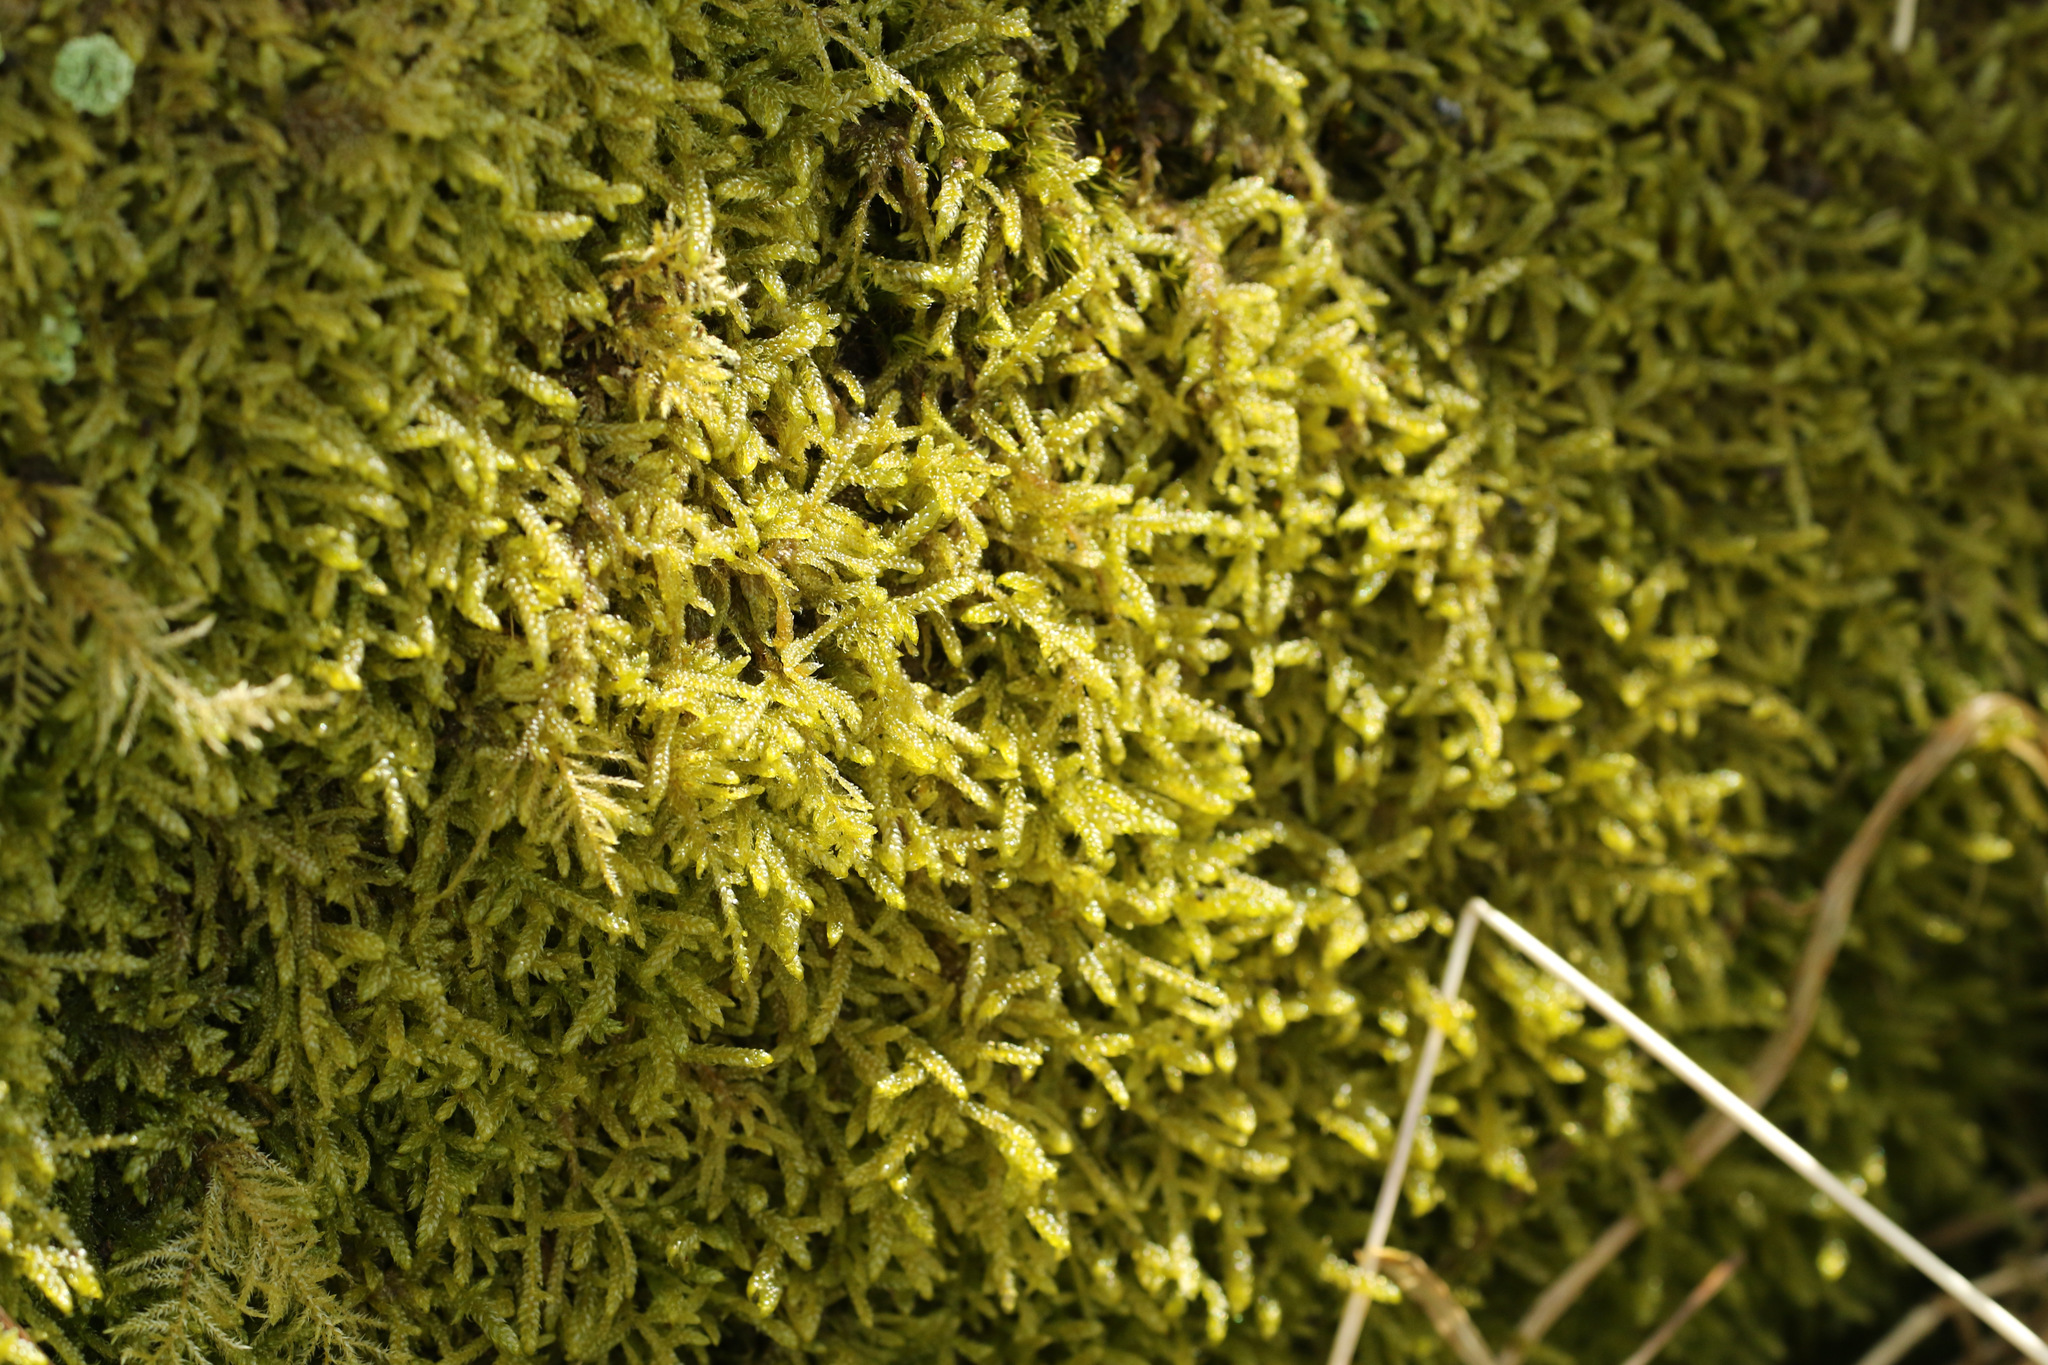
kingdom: Plantae
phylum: Bryophyta
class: Bryopsida
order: Hypnales
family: Hypnaceae
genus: Hypnum
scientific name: Hypnum cupressiforme
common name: Cypress-leaved plait-moss
